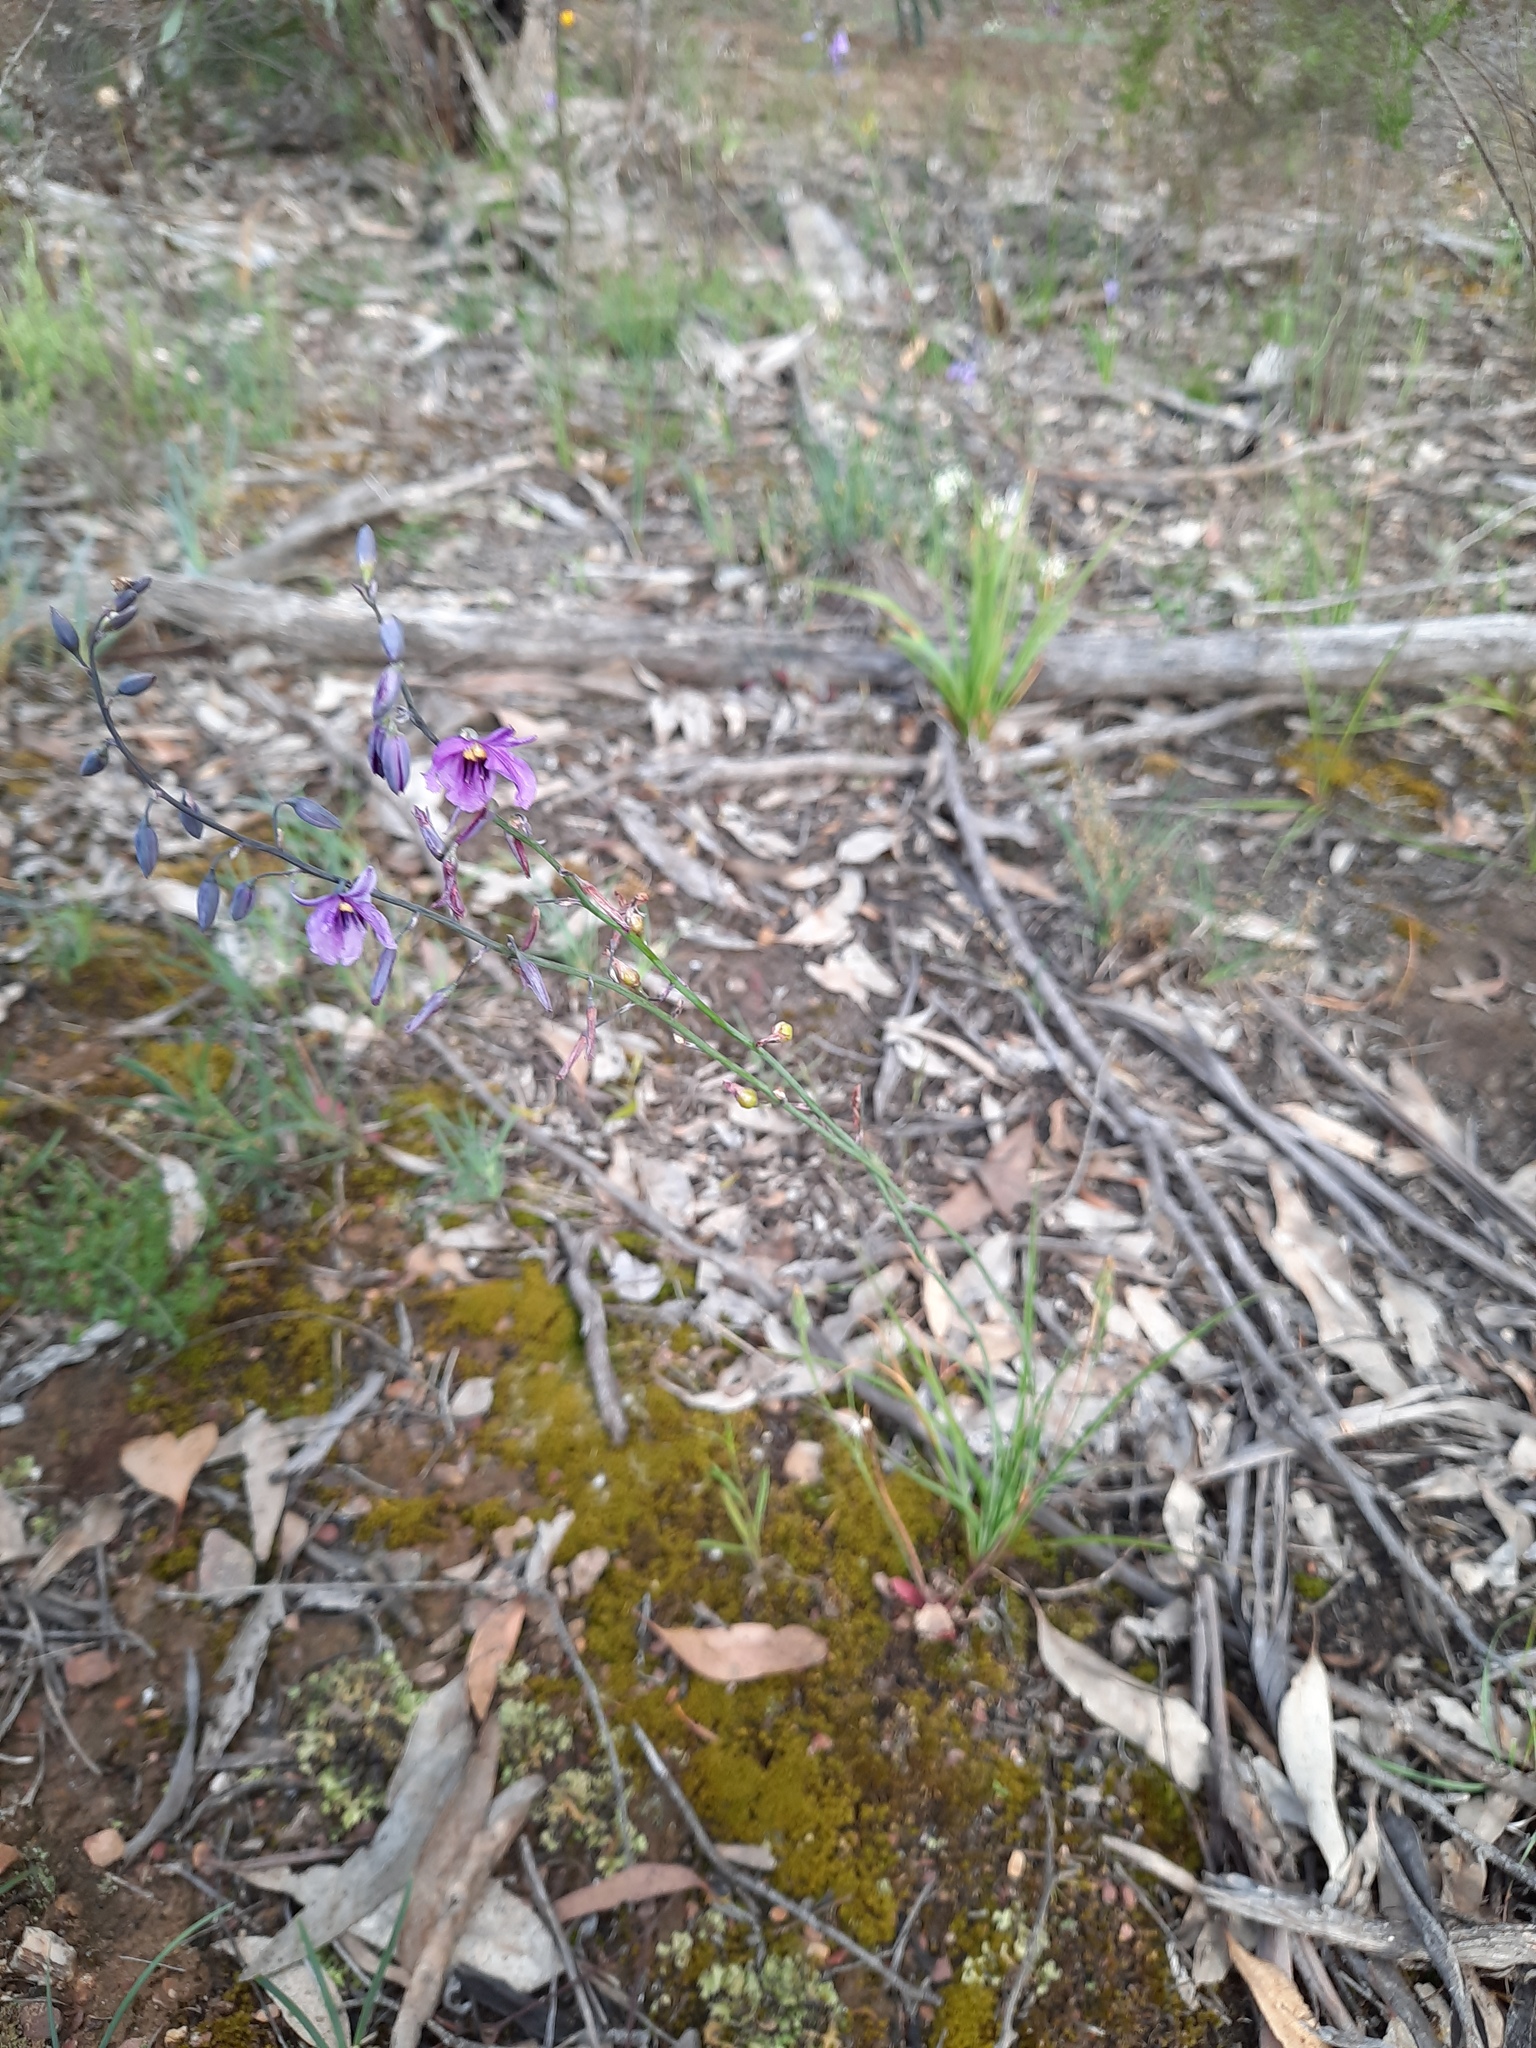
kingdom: Plantae
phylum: Tracheophyta
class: Liliopsida
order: Asparagales
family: Asparagaceae
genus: Arthropodium
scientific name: Arthropodium strictum
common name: Chocolate-lily
